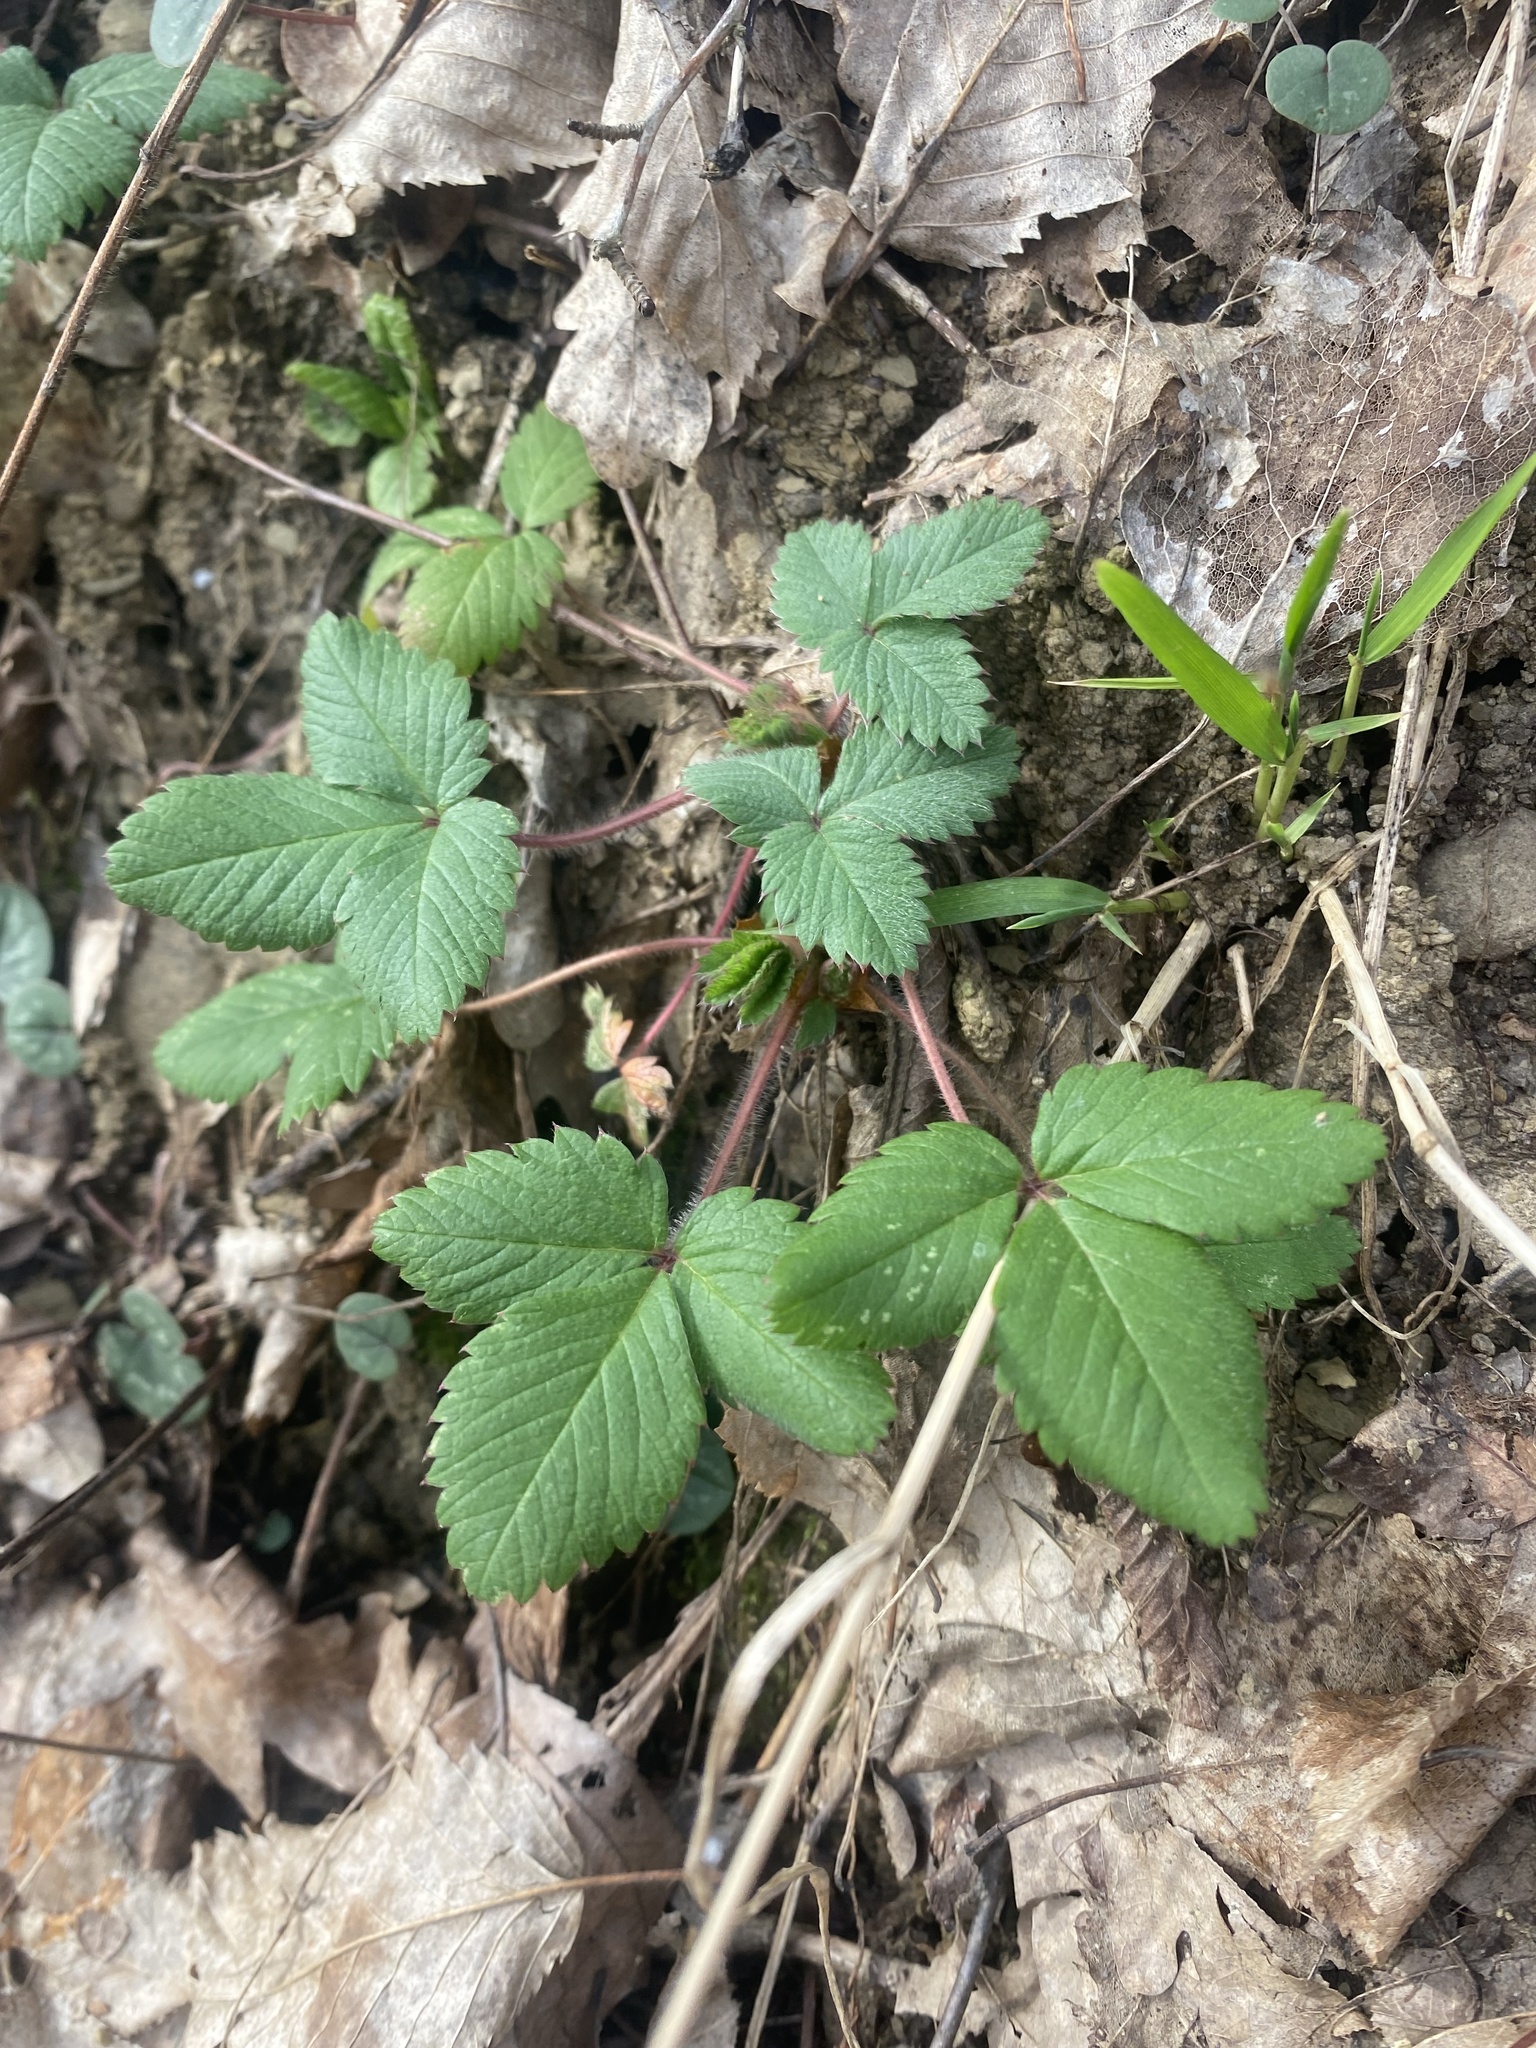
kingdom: Plantae
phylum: Tracheophyta
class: Magnoliopsida
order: Rosales
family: Rosaceae
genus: Potentilla
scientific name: Potentilla micrantha
